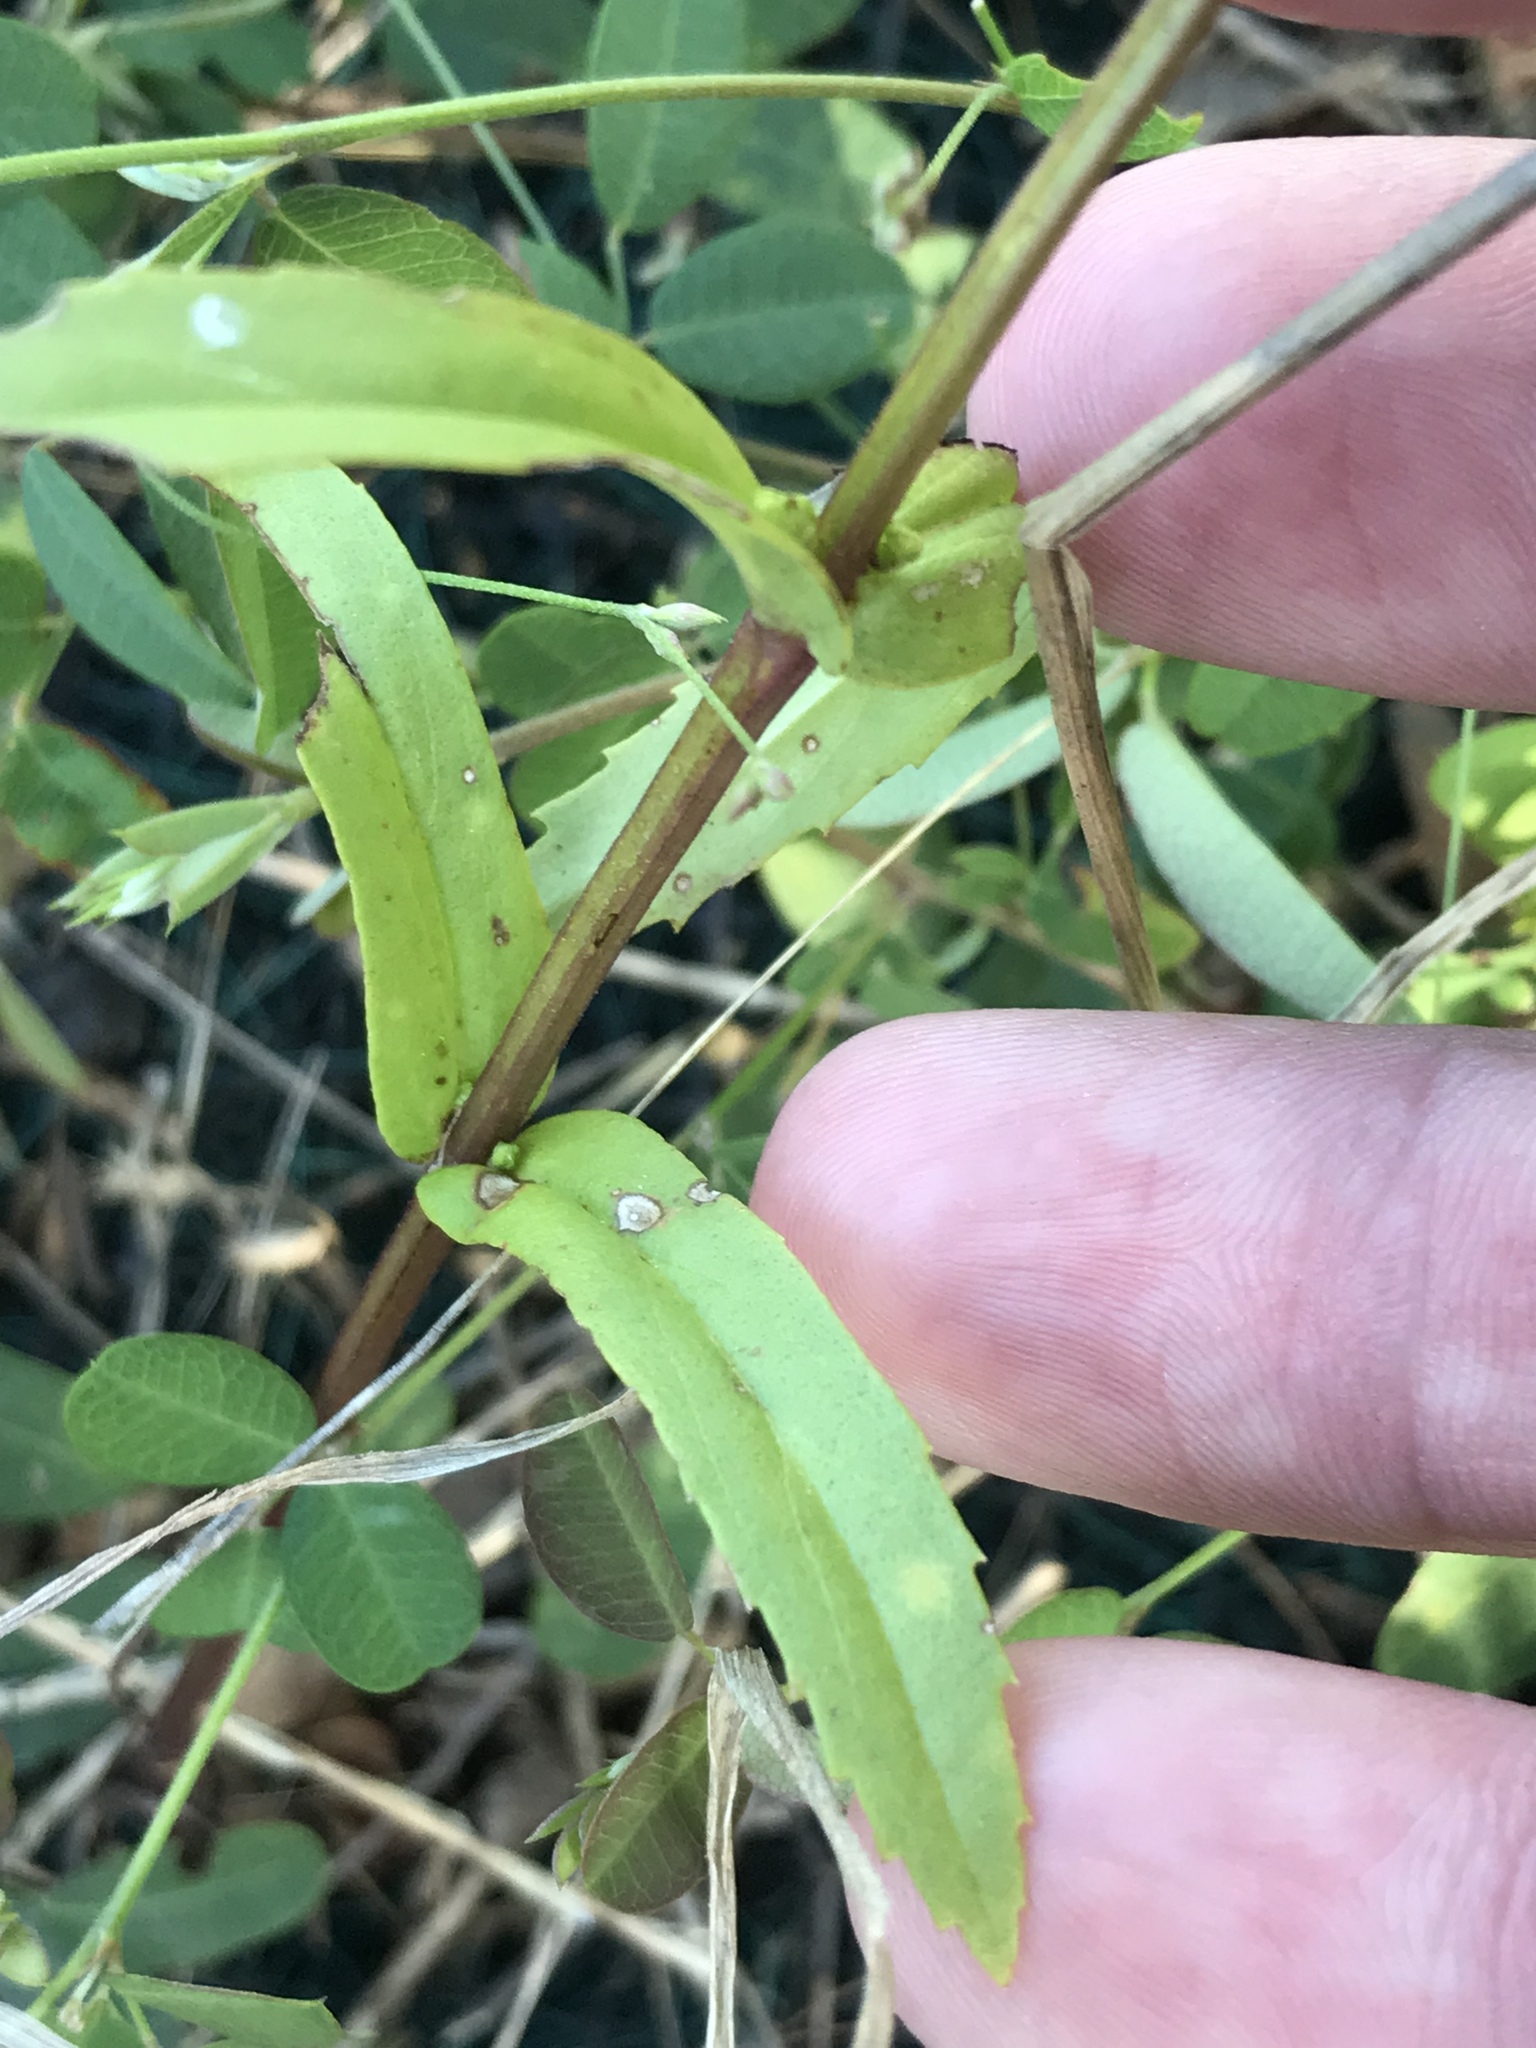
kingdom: Plantae
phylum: Tracheophyta
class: Magnoliopsida
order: Lamiales
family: Lamiaceae
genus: Warnockia
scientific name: Warnockia scutellarioides
